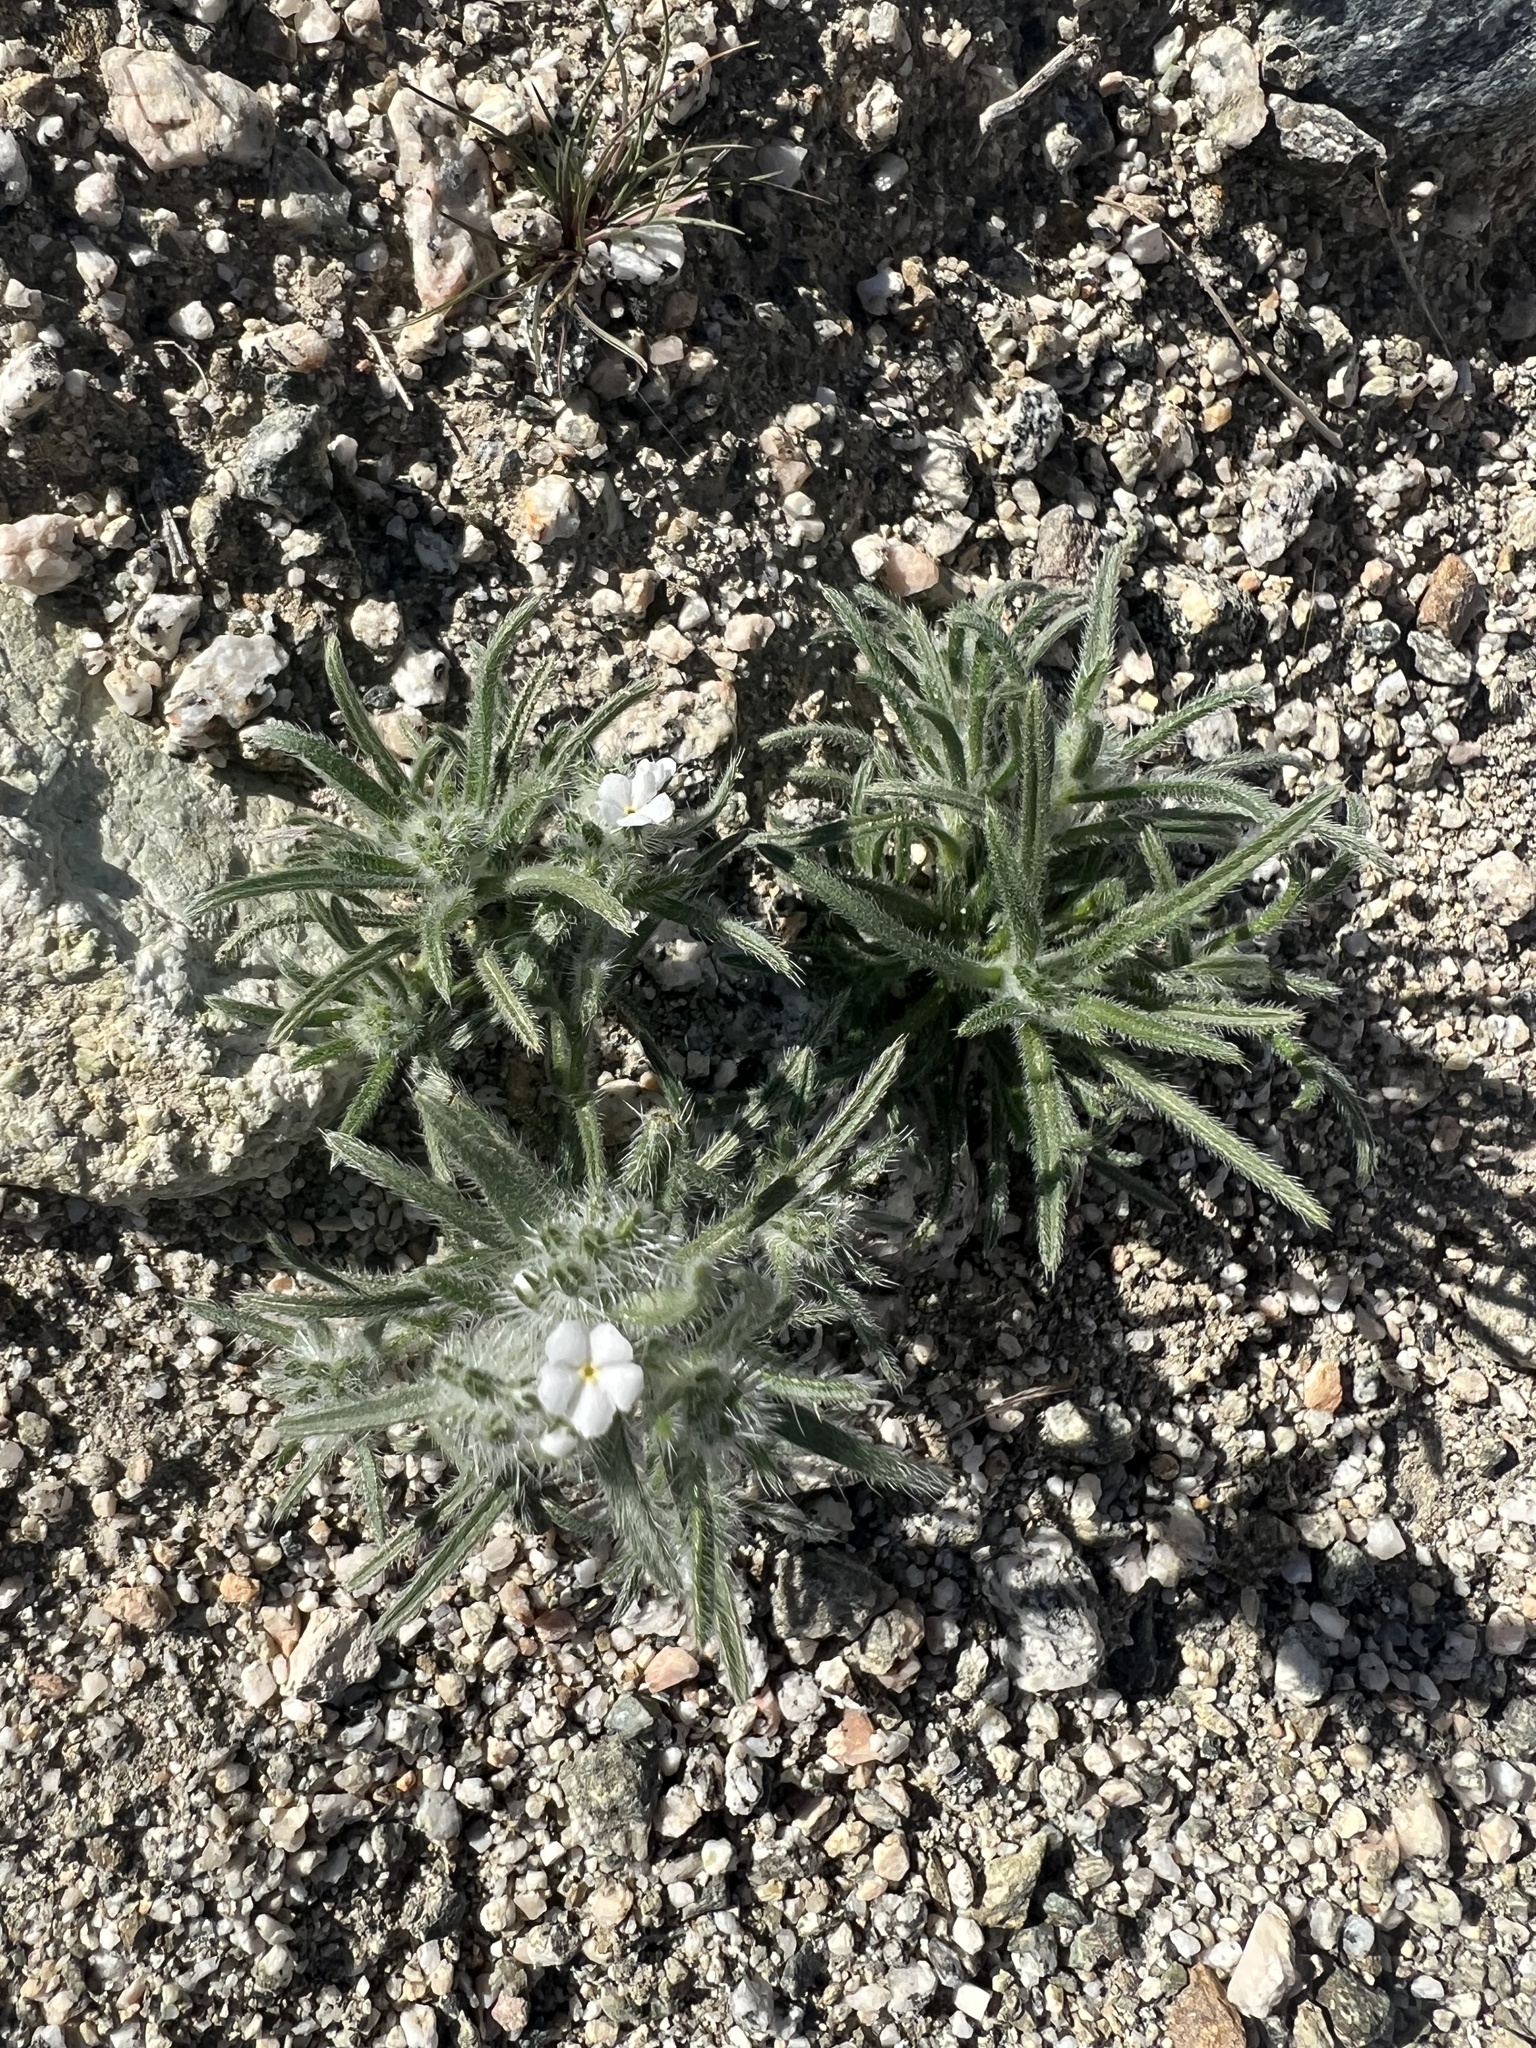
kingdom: Plantae
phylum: Tracheophyta
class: Magnoliopsida
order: Boraginales
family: Boraginaceae
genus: Johnstonella
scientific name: Johnstonella angustifolia
